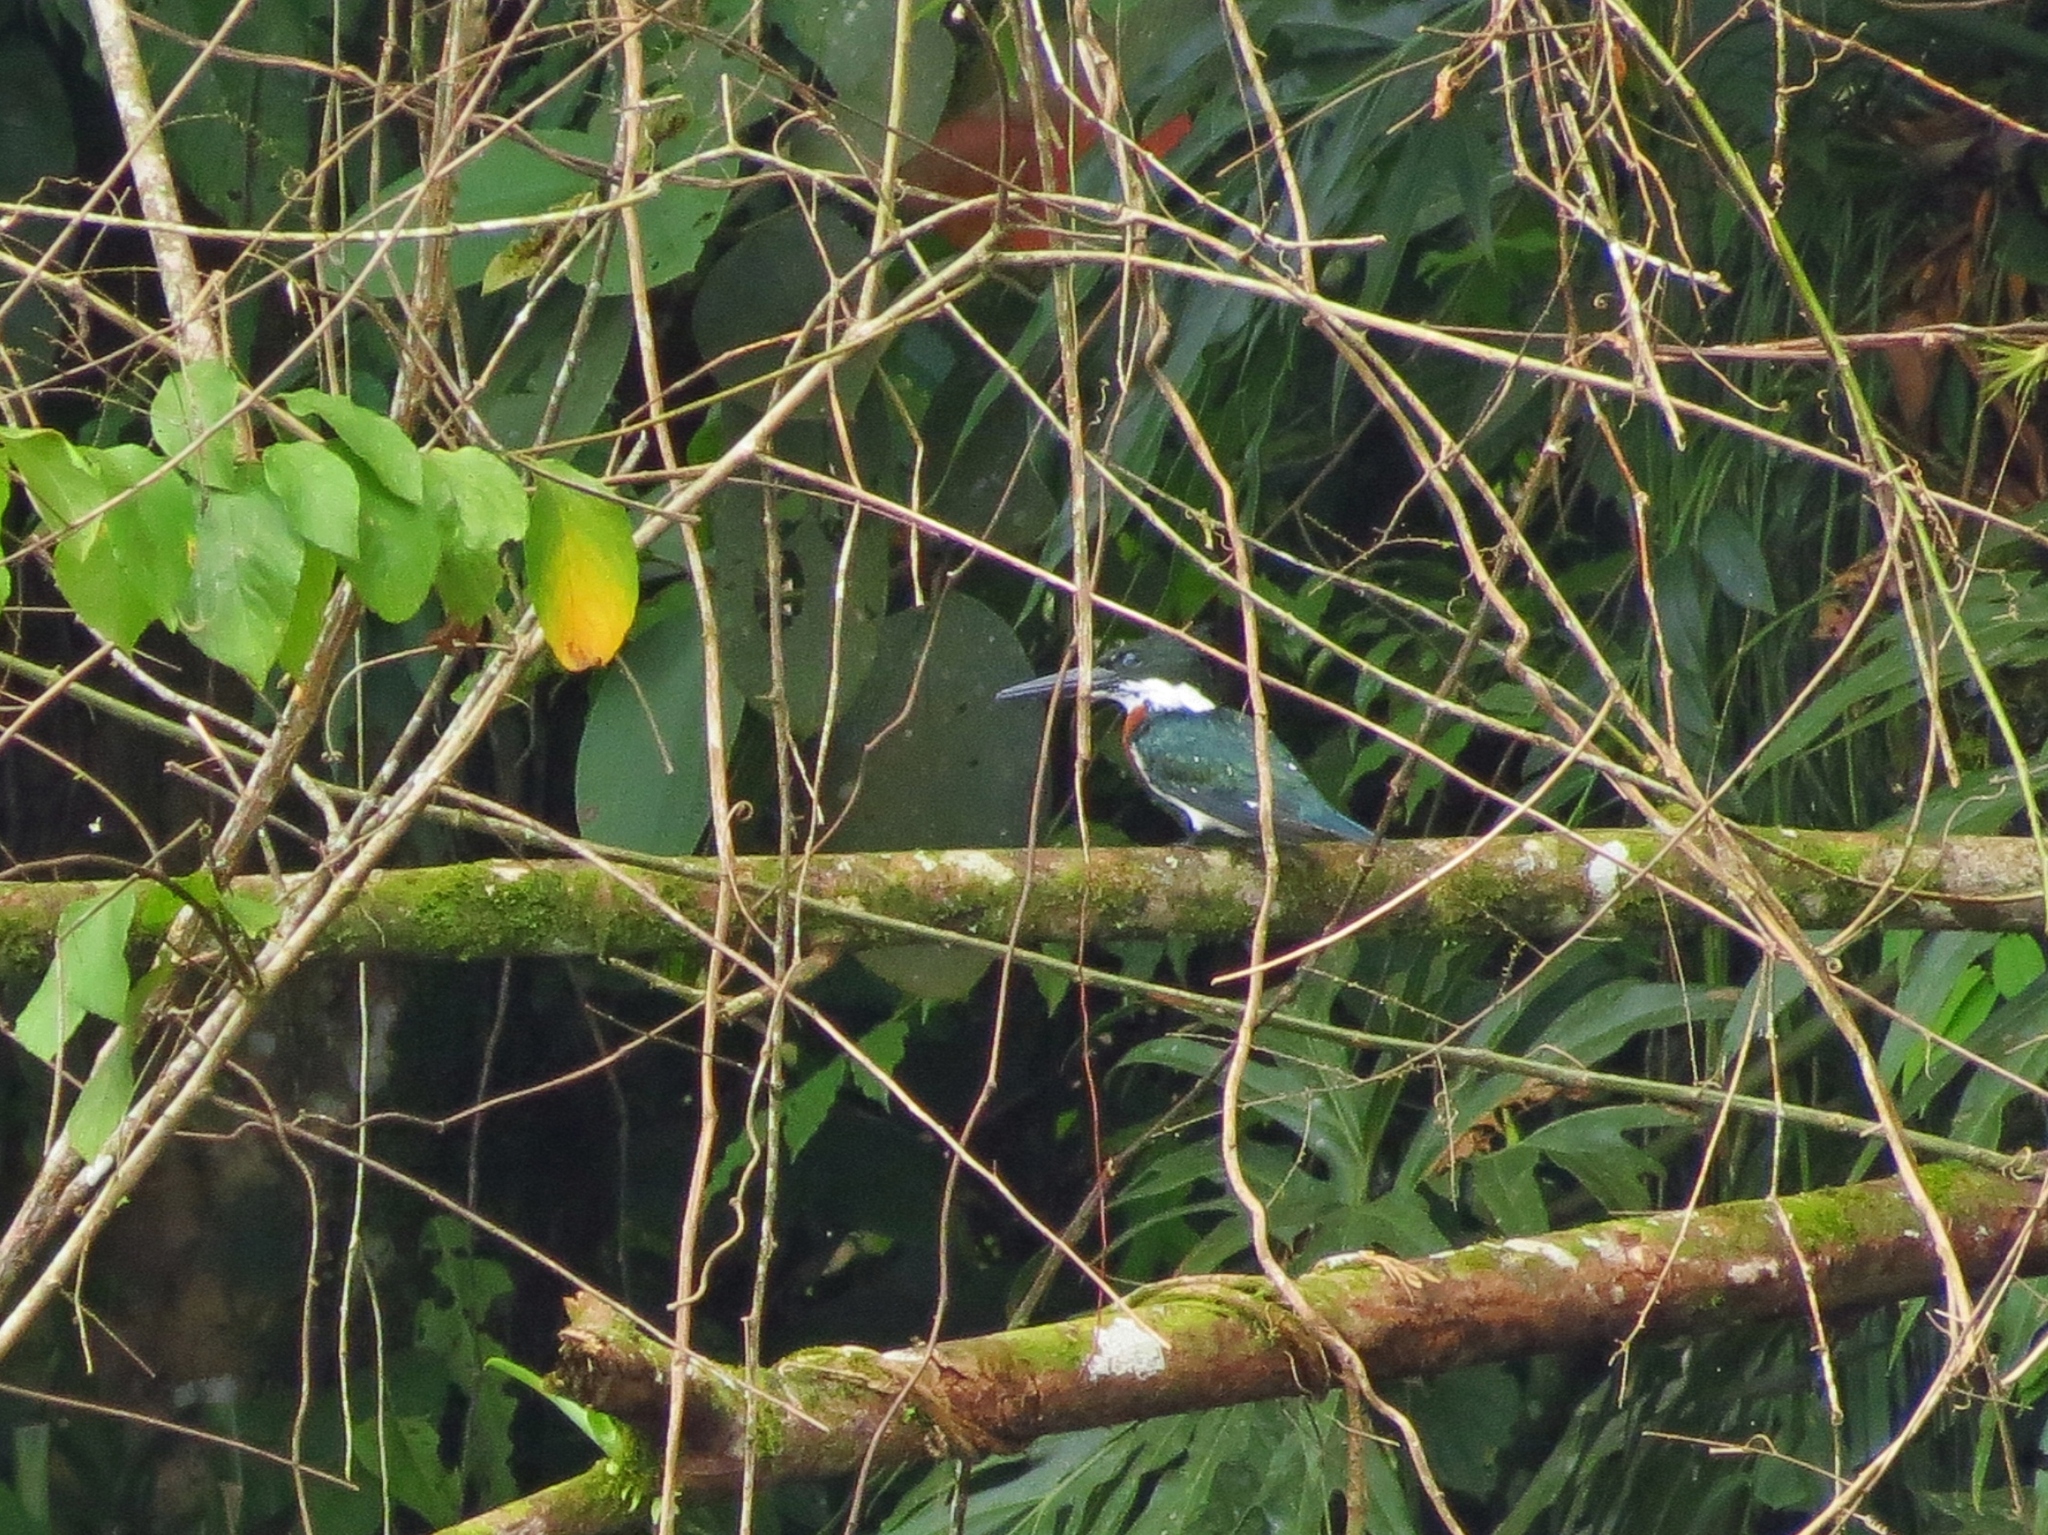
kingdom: Animalia
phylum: Chordata
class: Aves
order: Coraciiformes
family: Alcedinidae
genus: Chloroceryle
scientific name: Chloroceryle amazona
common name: Amazon kingfisher
